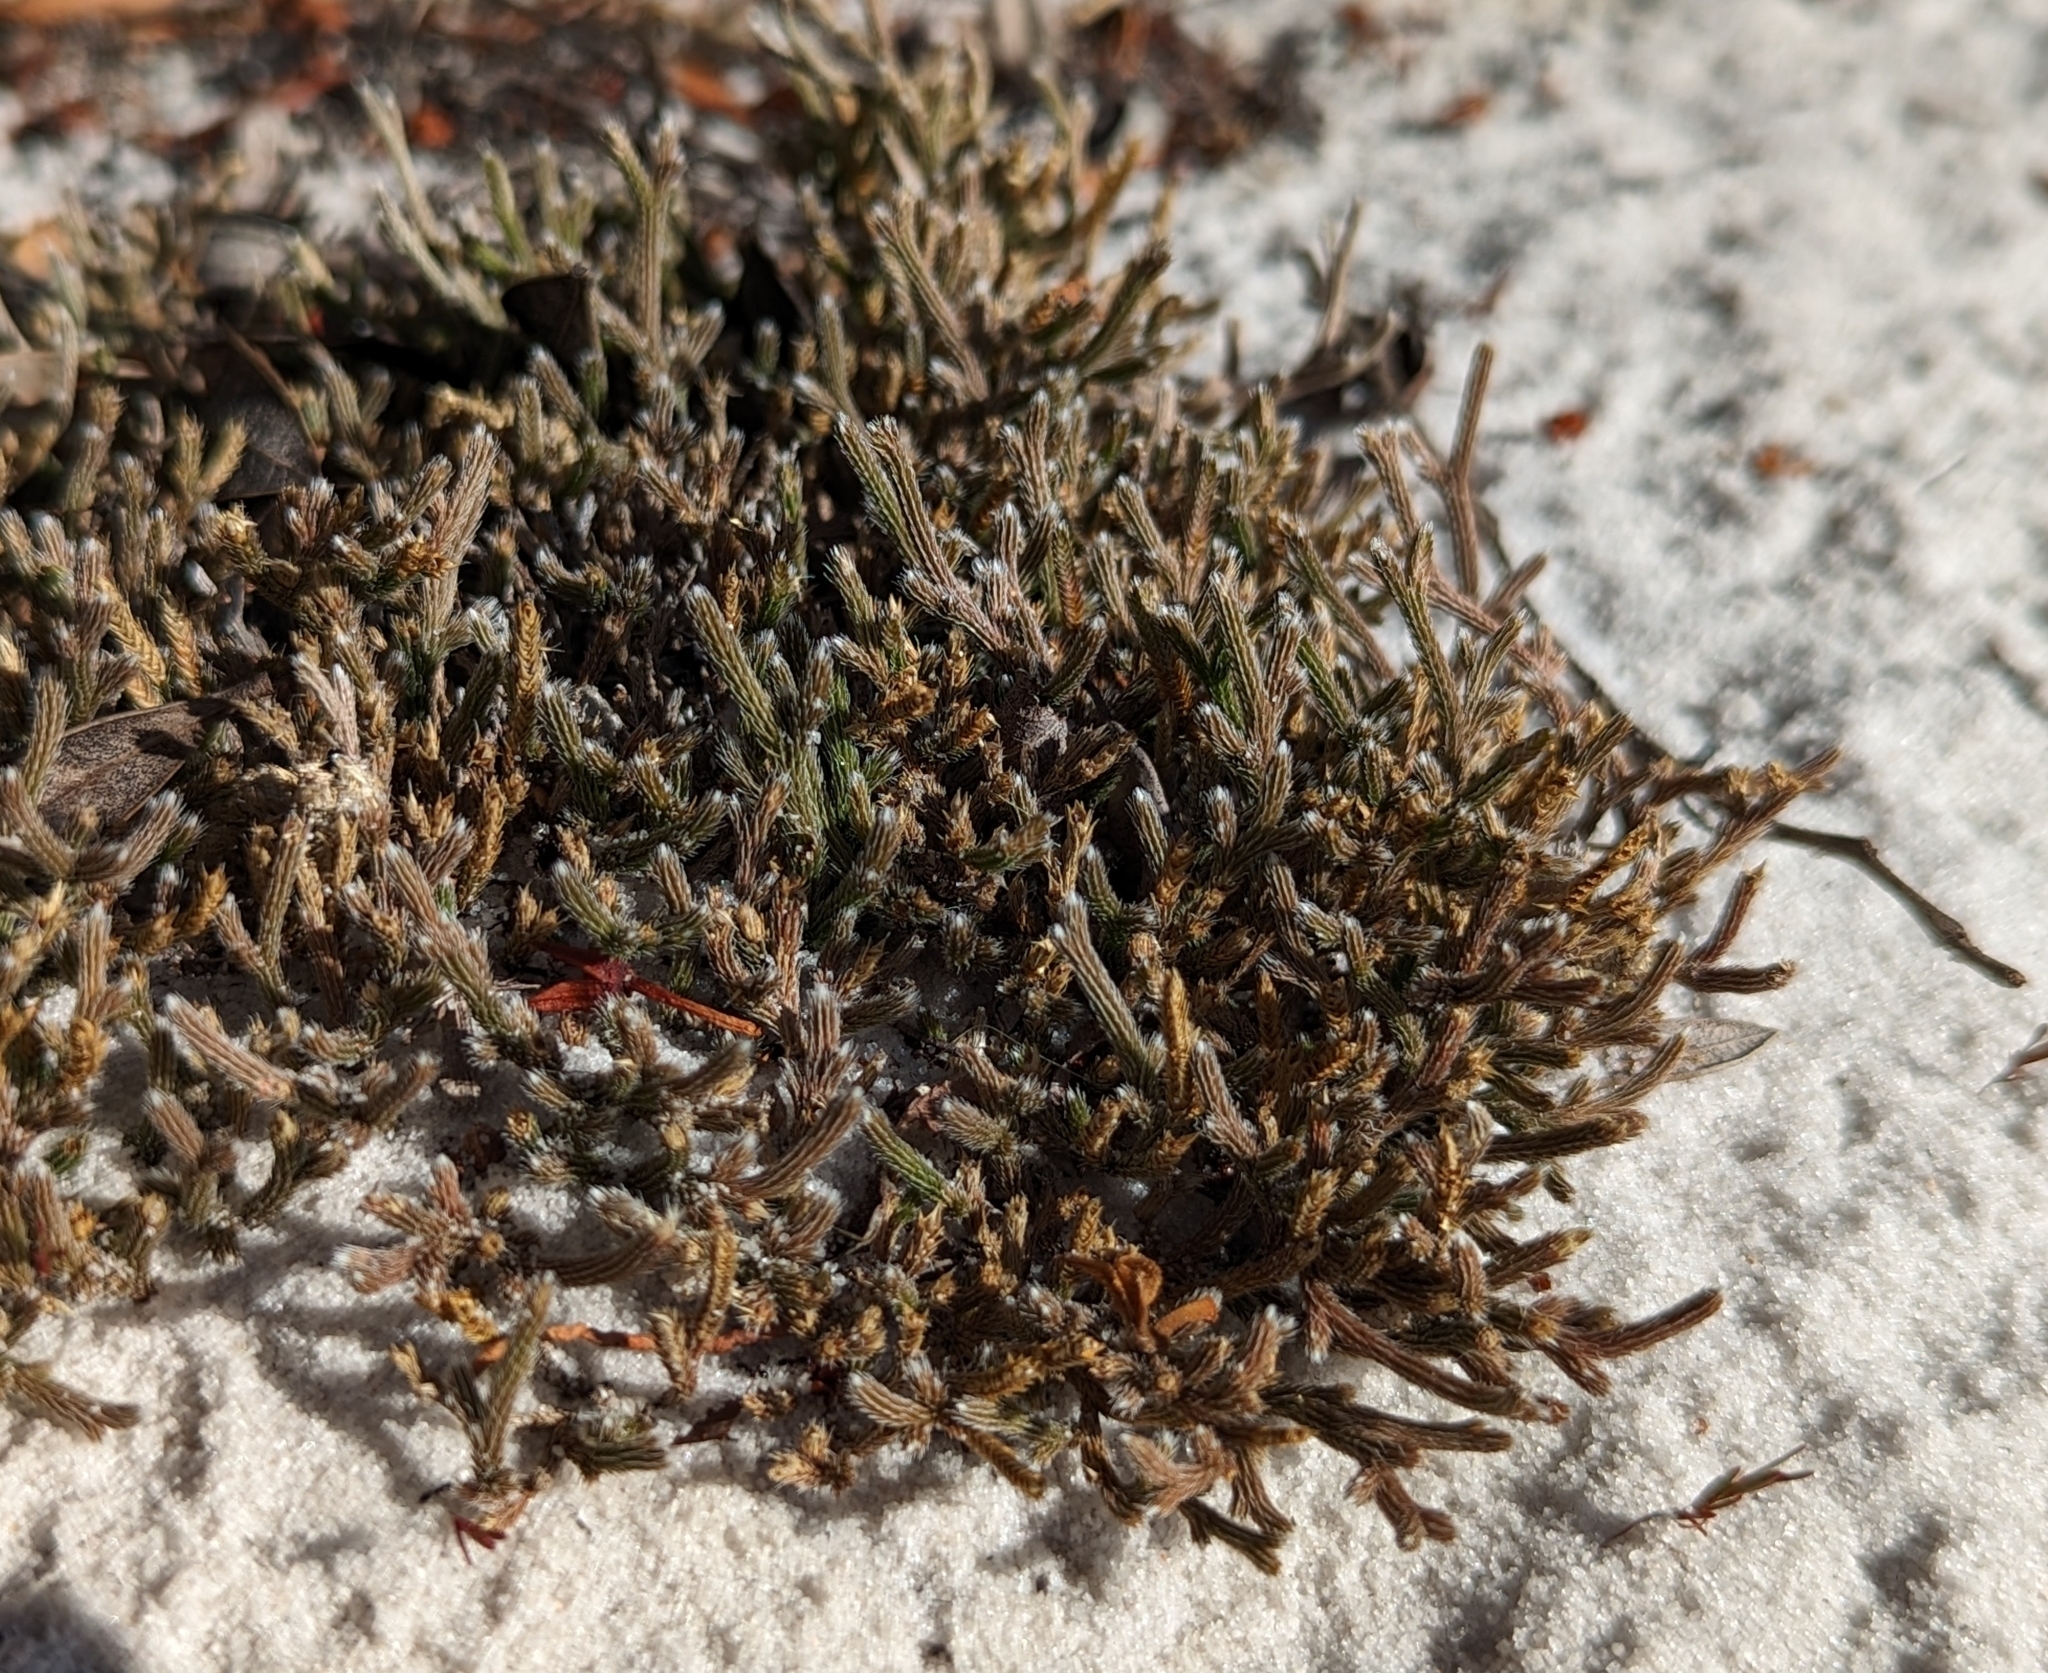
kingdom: Plantae
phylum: Tracheophyta
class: Lycopodiopsida
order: Selaginellales
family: Selaginellaceae
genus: Selaginella
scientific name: Selaginella arenicola
